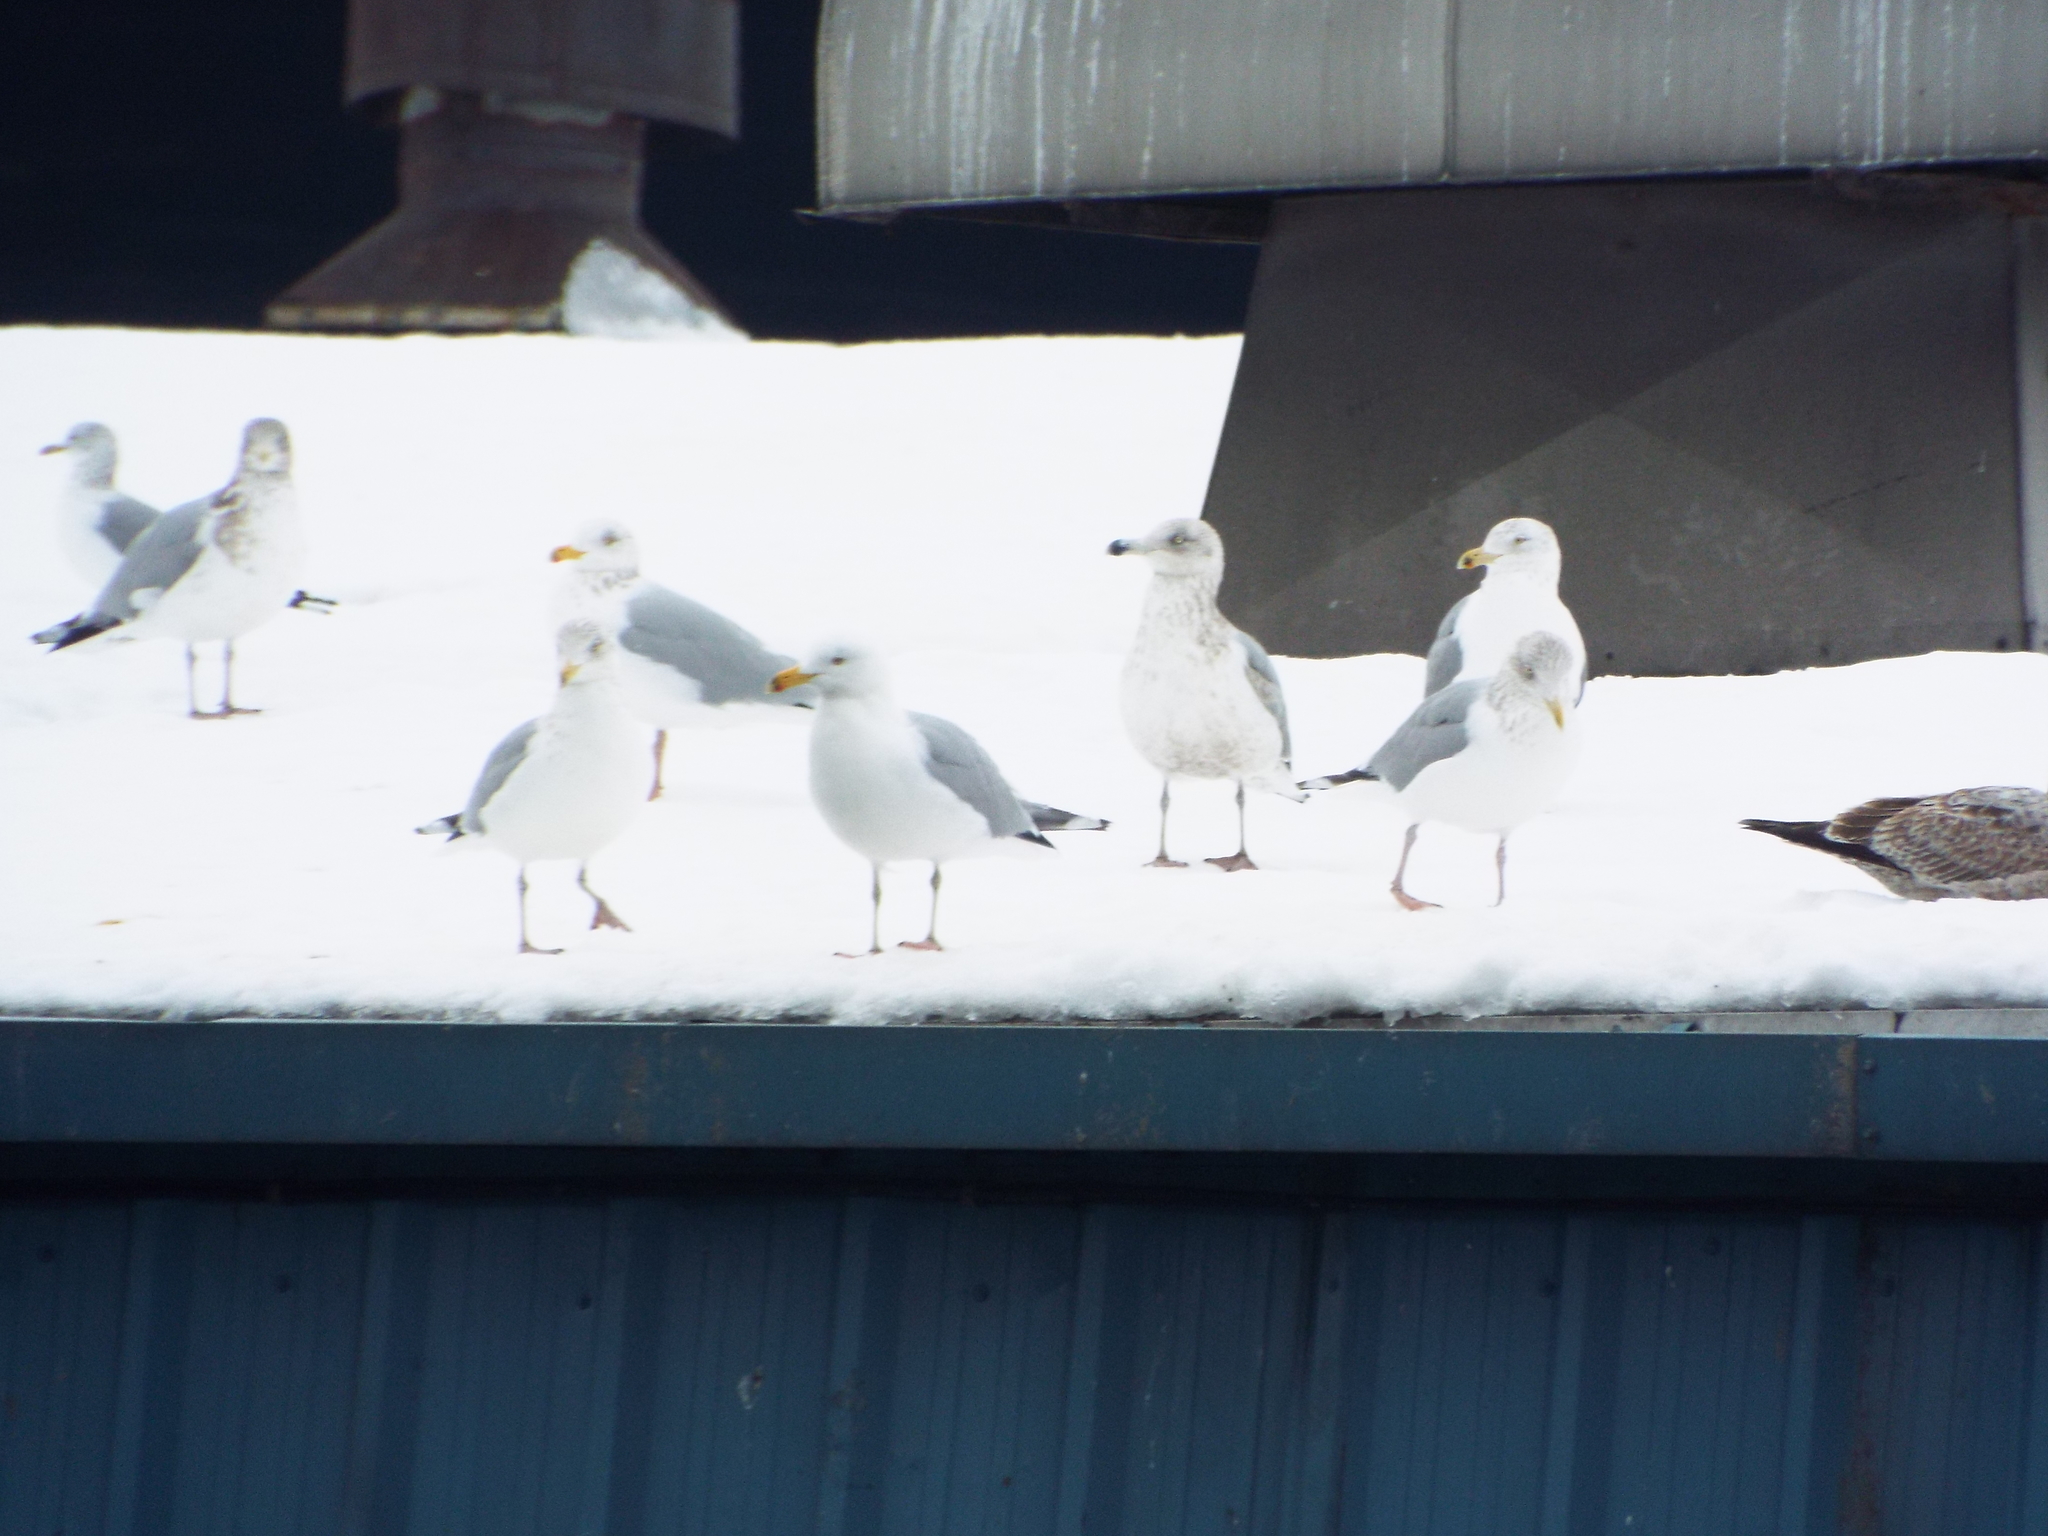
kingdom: Animalia
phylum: Chordata
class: Aves
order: Charadriiformes
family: Laridae
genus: Larus
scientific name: Larus argentatus
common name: Herring gull
